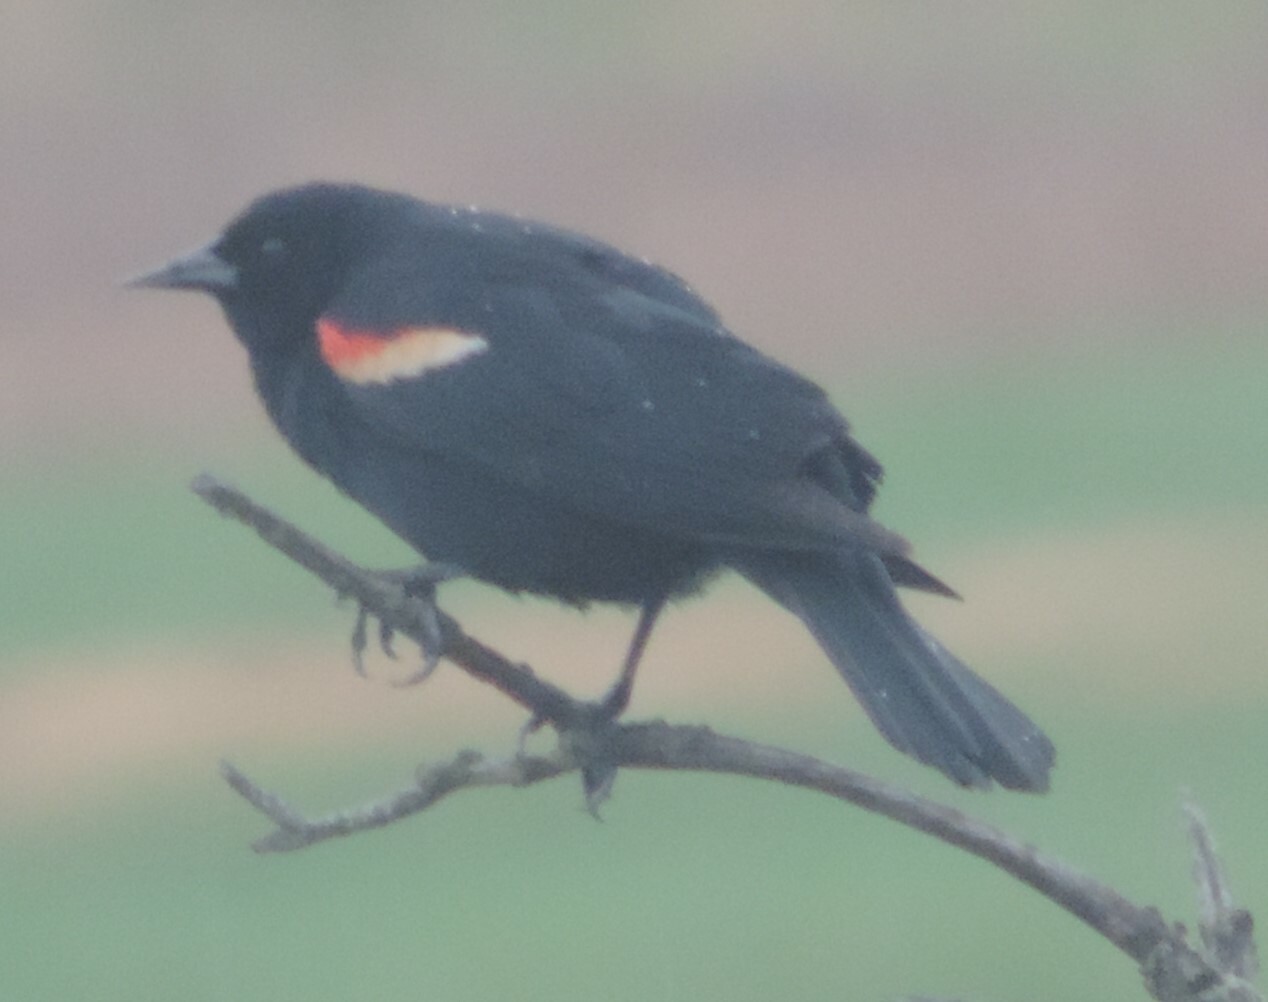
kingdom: Animalia
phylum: Chordata
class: Aves
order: Passeriformes
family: Icteridae
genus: Agelaius
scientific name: Agelaius phoeniceus
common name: Red-winged blackbird
